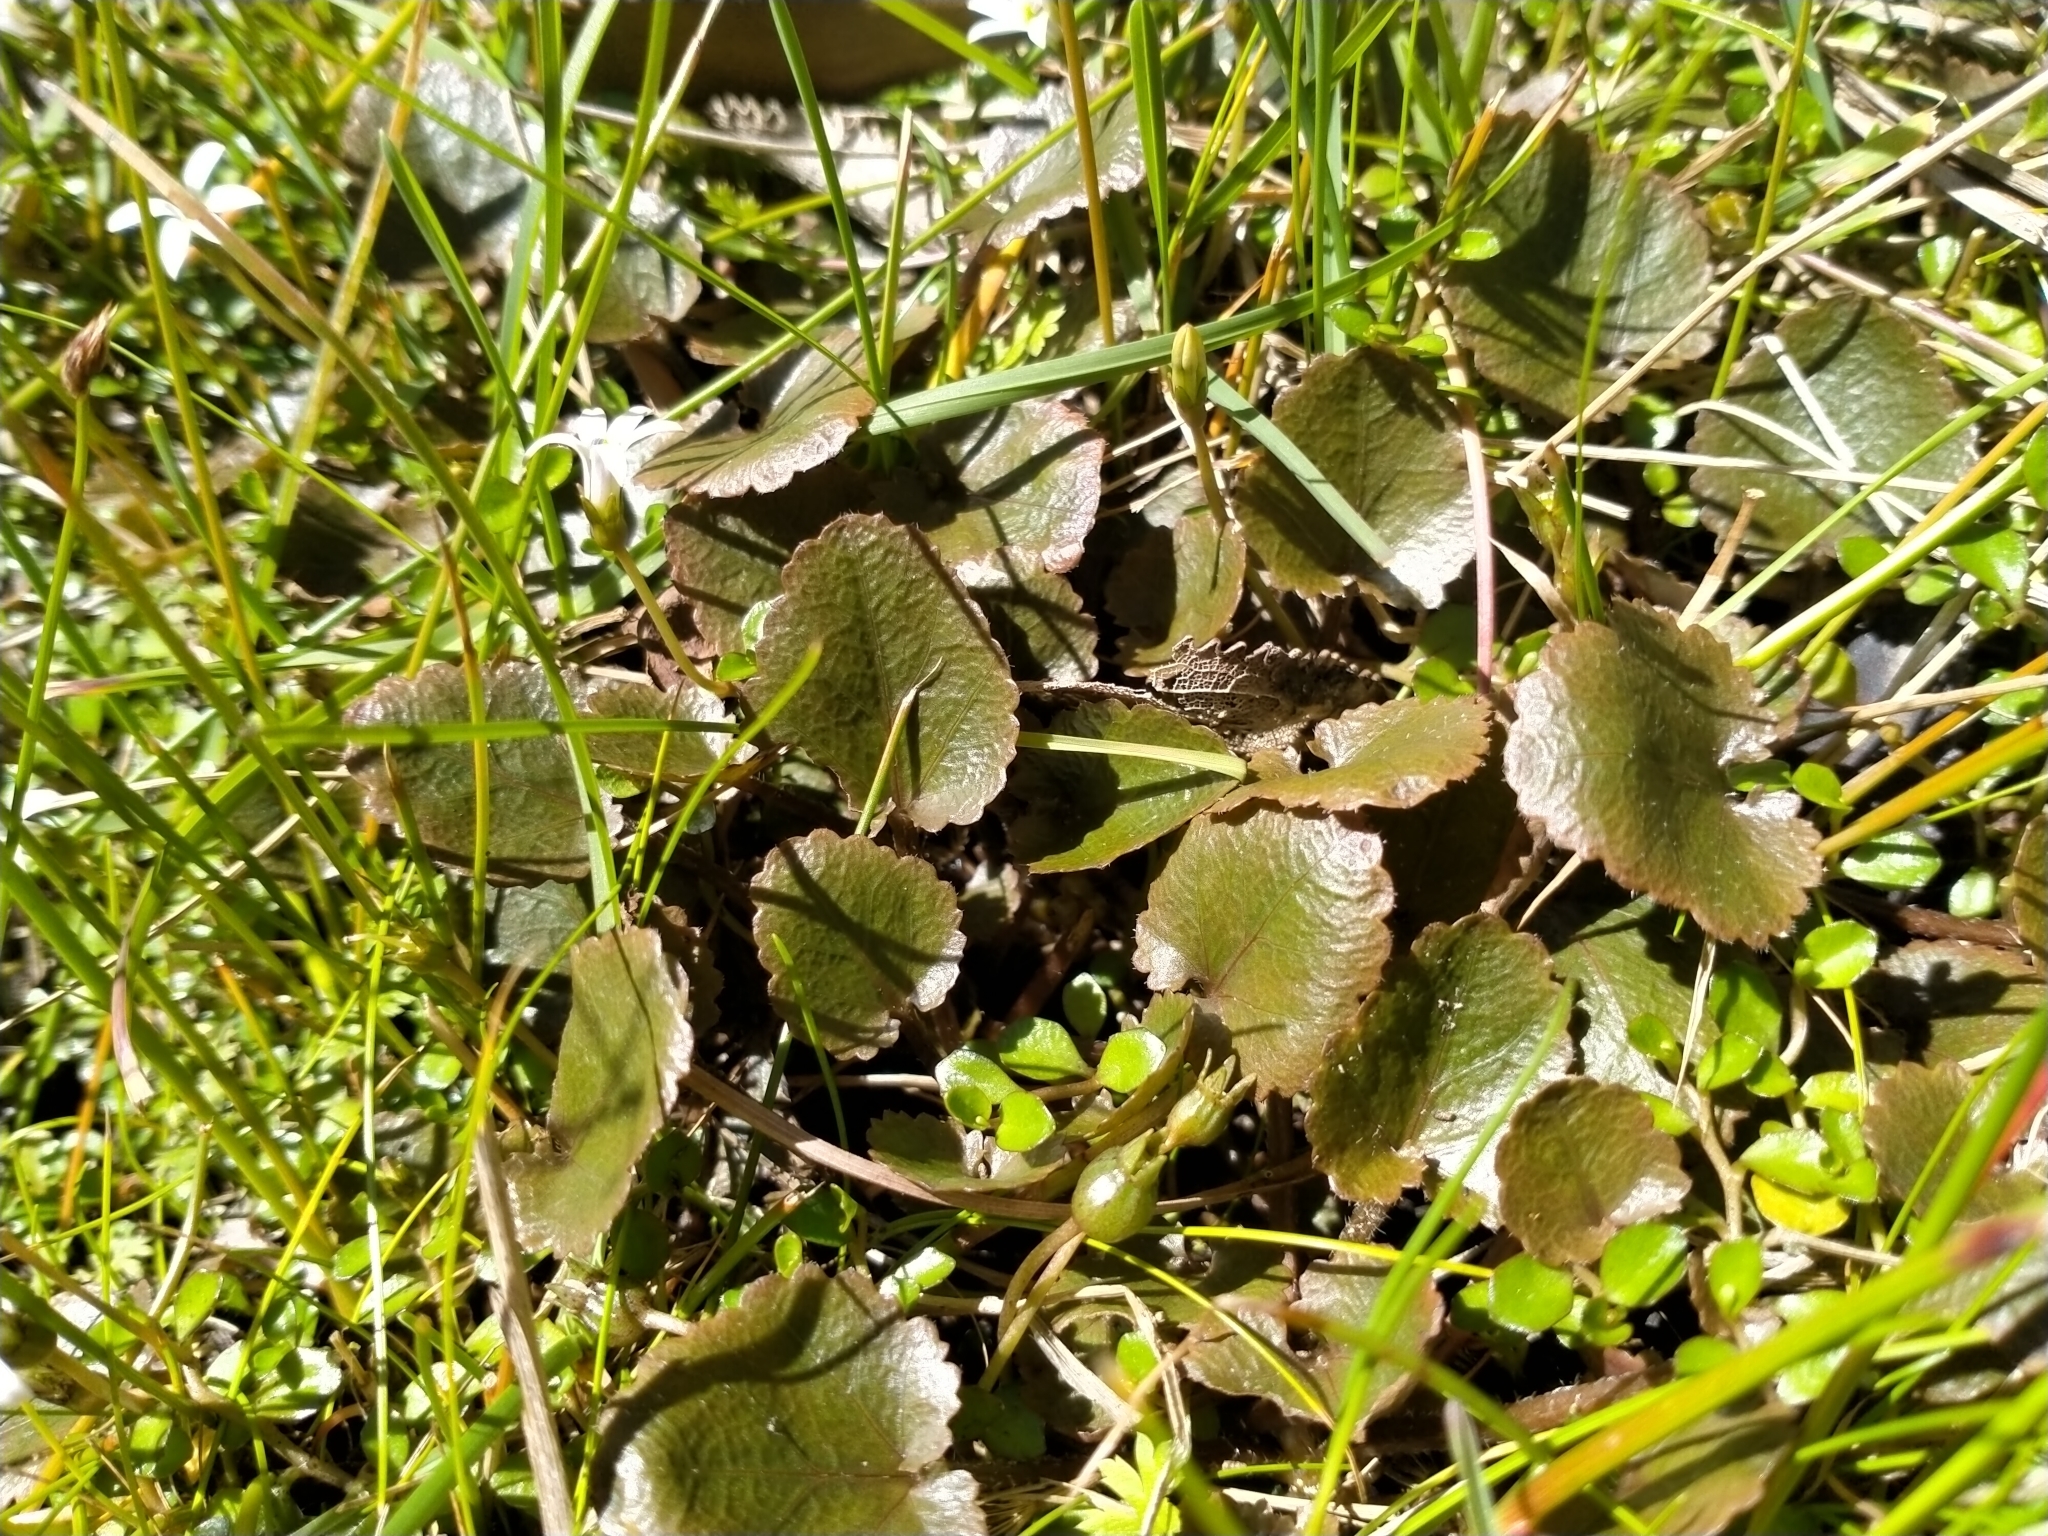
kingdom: Plantae
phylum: Tracheophyta
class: Magnoliopsida
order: Gunnerales
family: Gunneraceae
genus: Gunnera
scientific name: Gunnera prorepens
